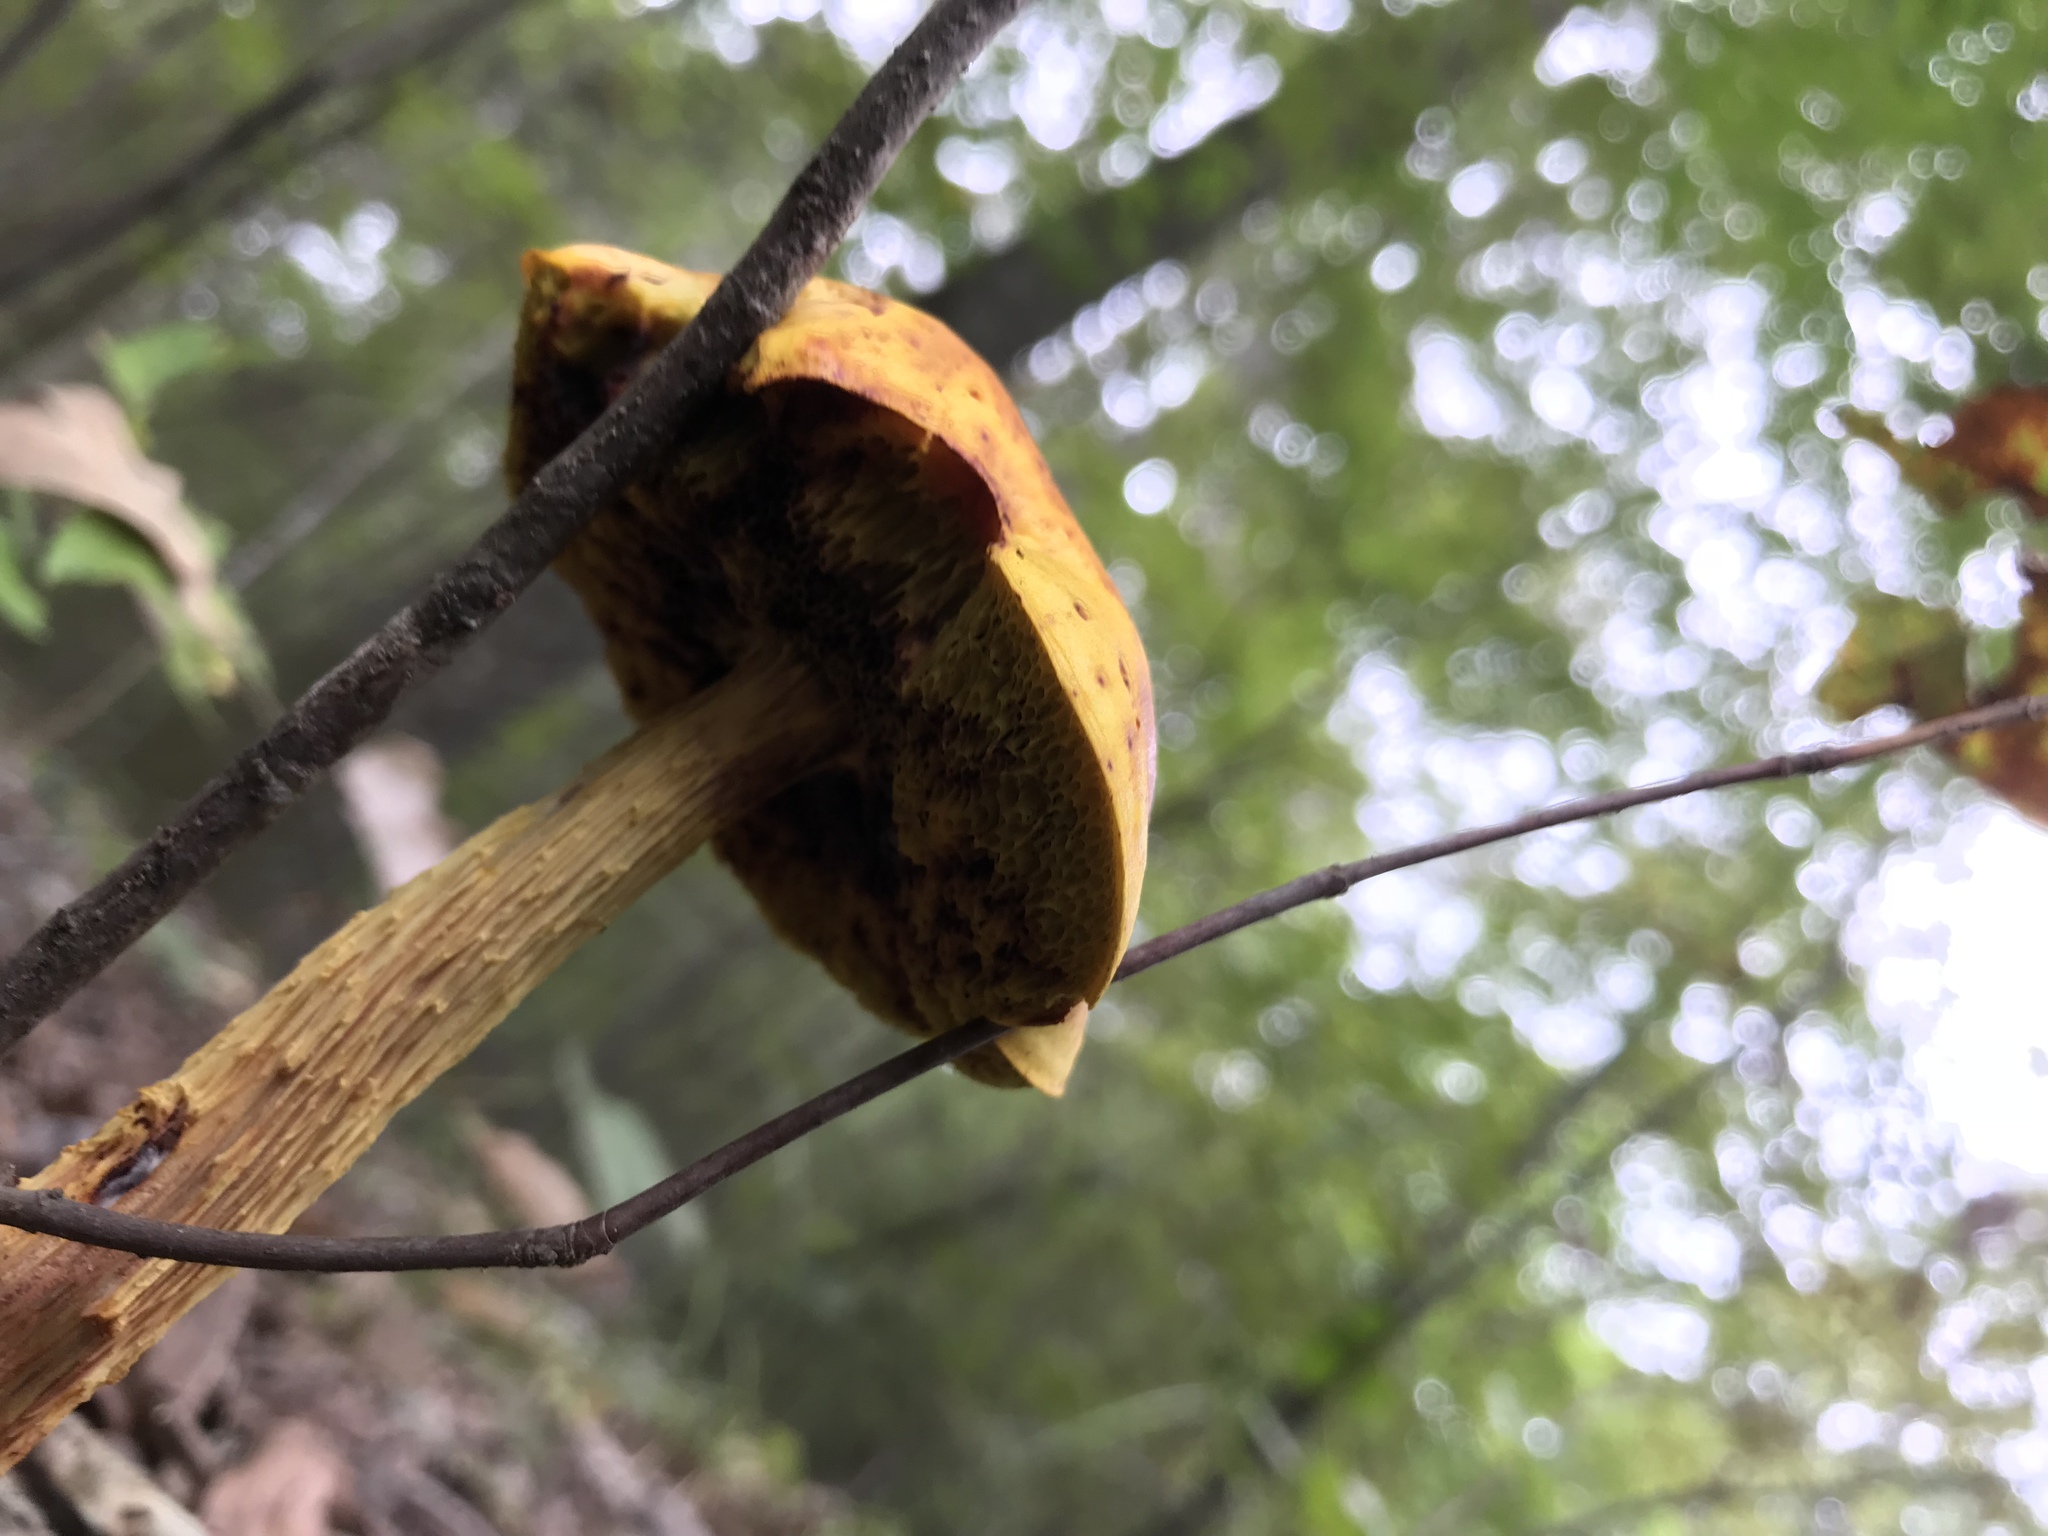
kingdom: Fungi
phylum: Basidiomycota
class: Agaricomycetes
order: Boletales
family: Boletaceae
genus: Aureoboletus
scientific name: Aureoboletus betula
